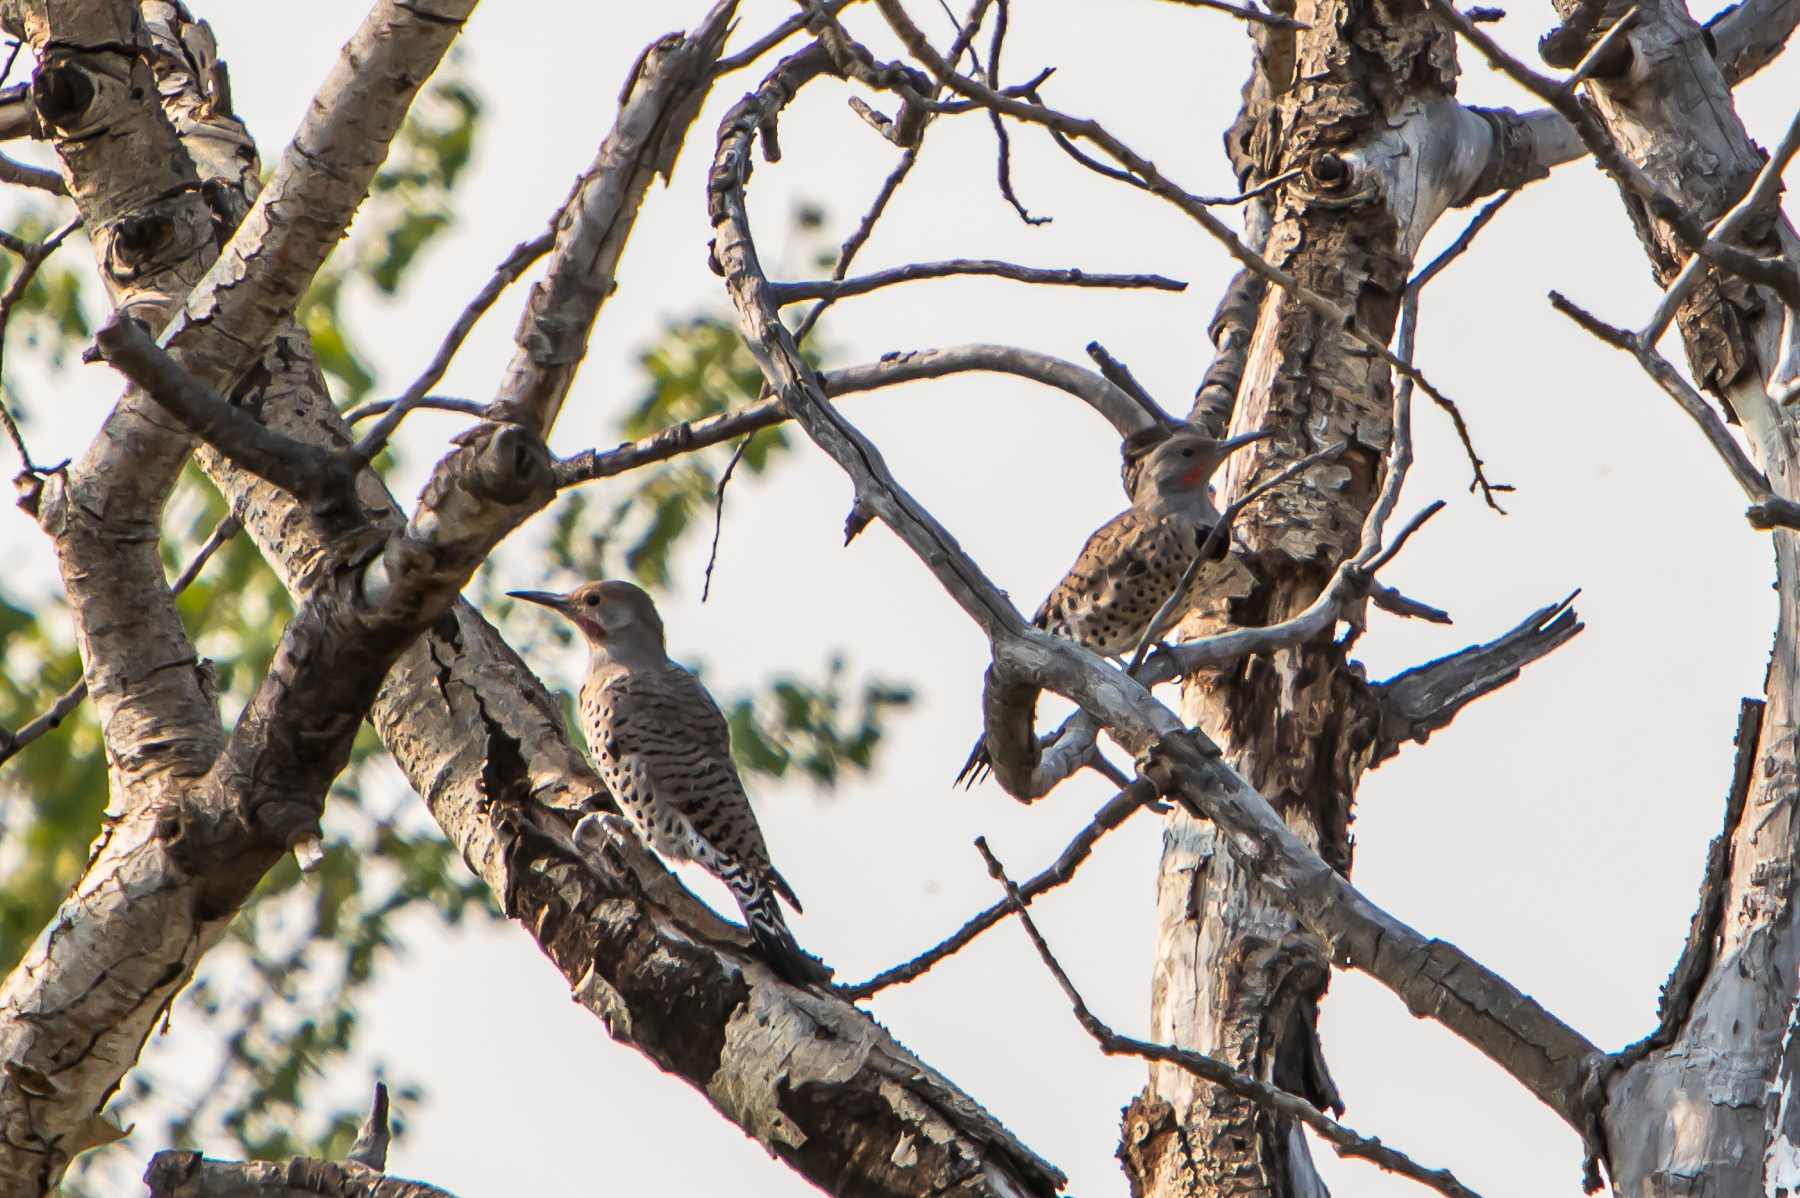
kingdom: Animalia
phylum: Chordata
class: Aves
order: Piciformes
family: Picidae
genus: Colaptes
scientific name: Colaptes auratus
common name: Northern flicker
